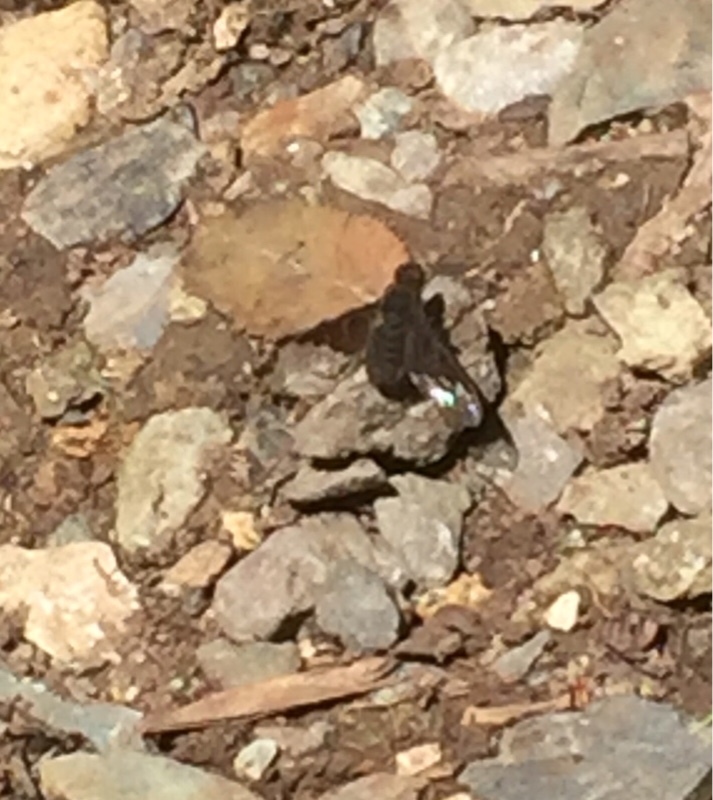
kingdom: Animalia
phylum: Arthropoda
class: Insecta
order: Diptera
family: Bombyliidae
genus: Anthrax
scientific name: Anthrax anthrax
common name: Anthracite bee-fly
